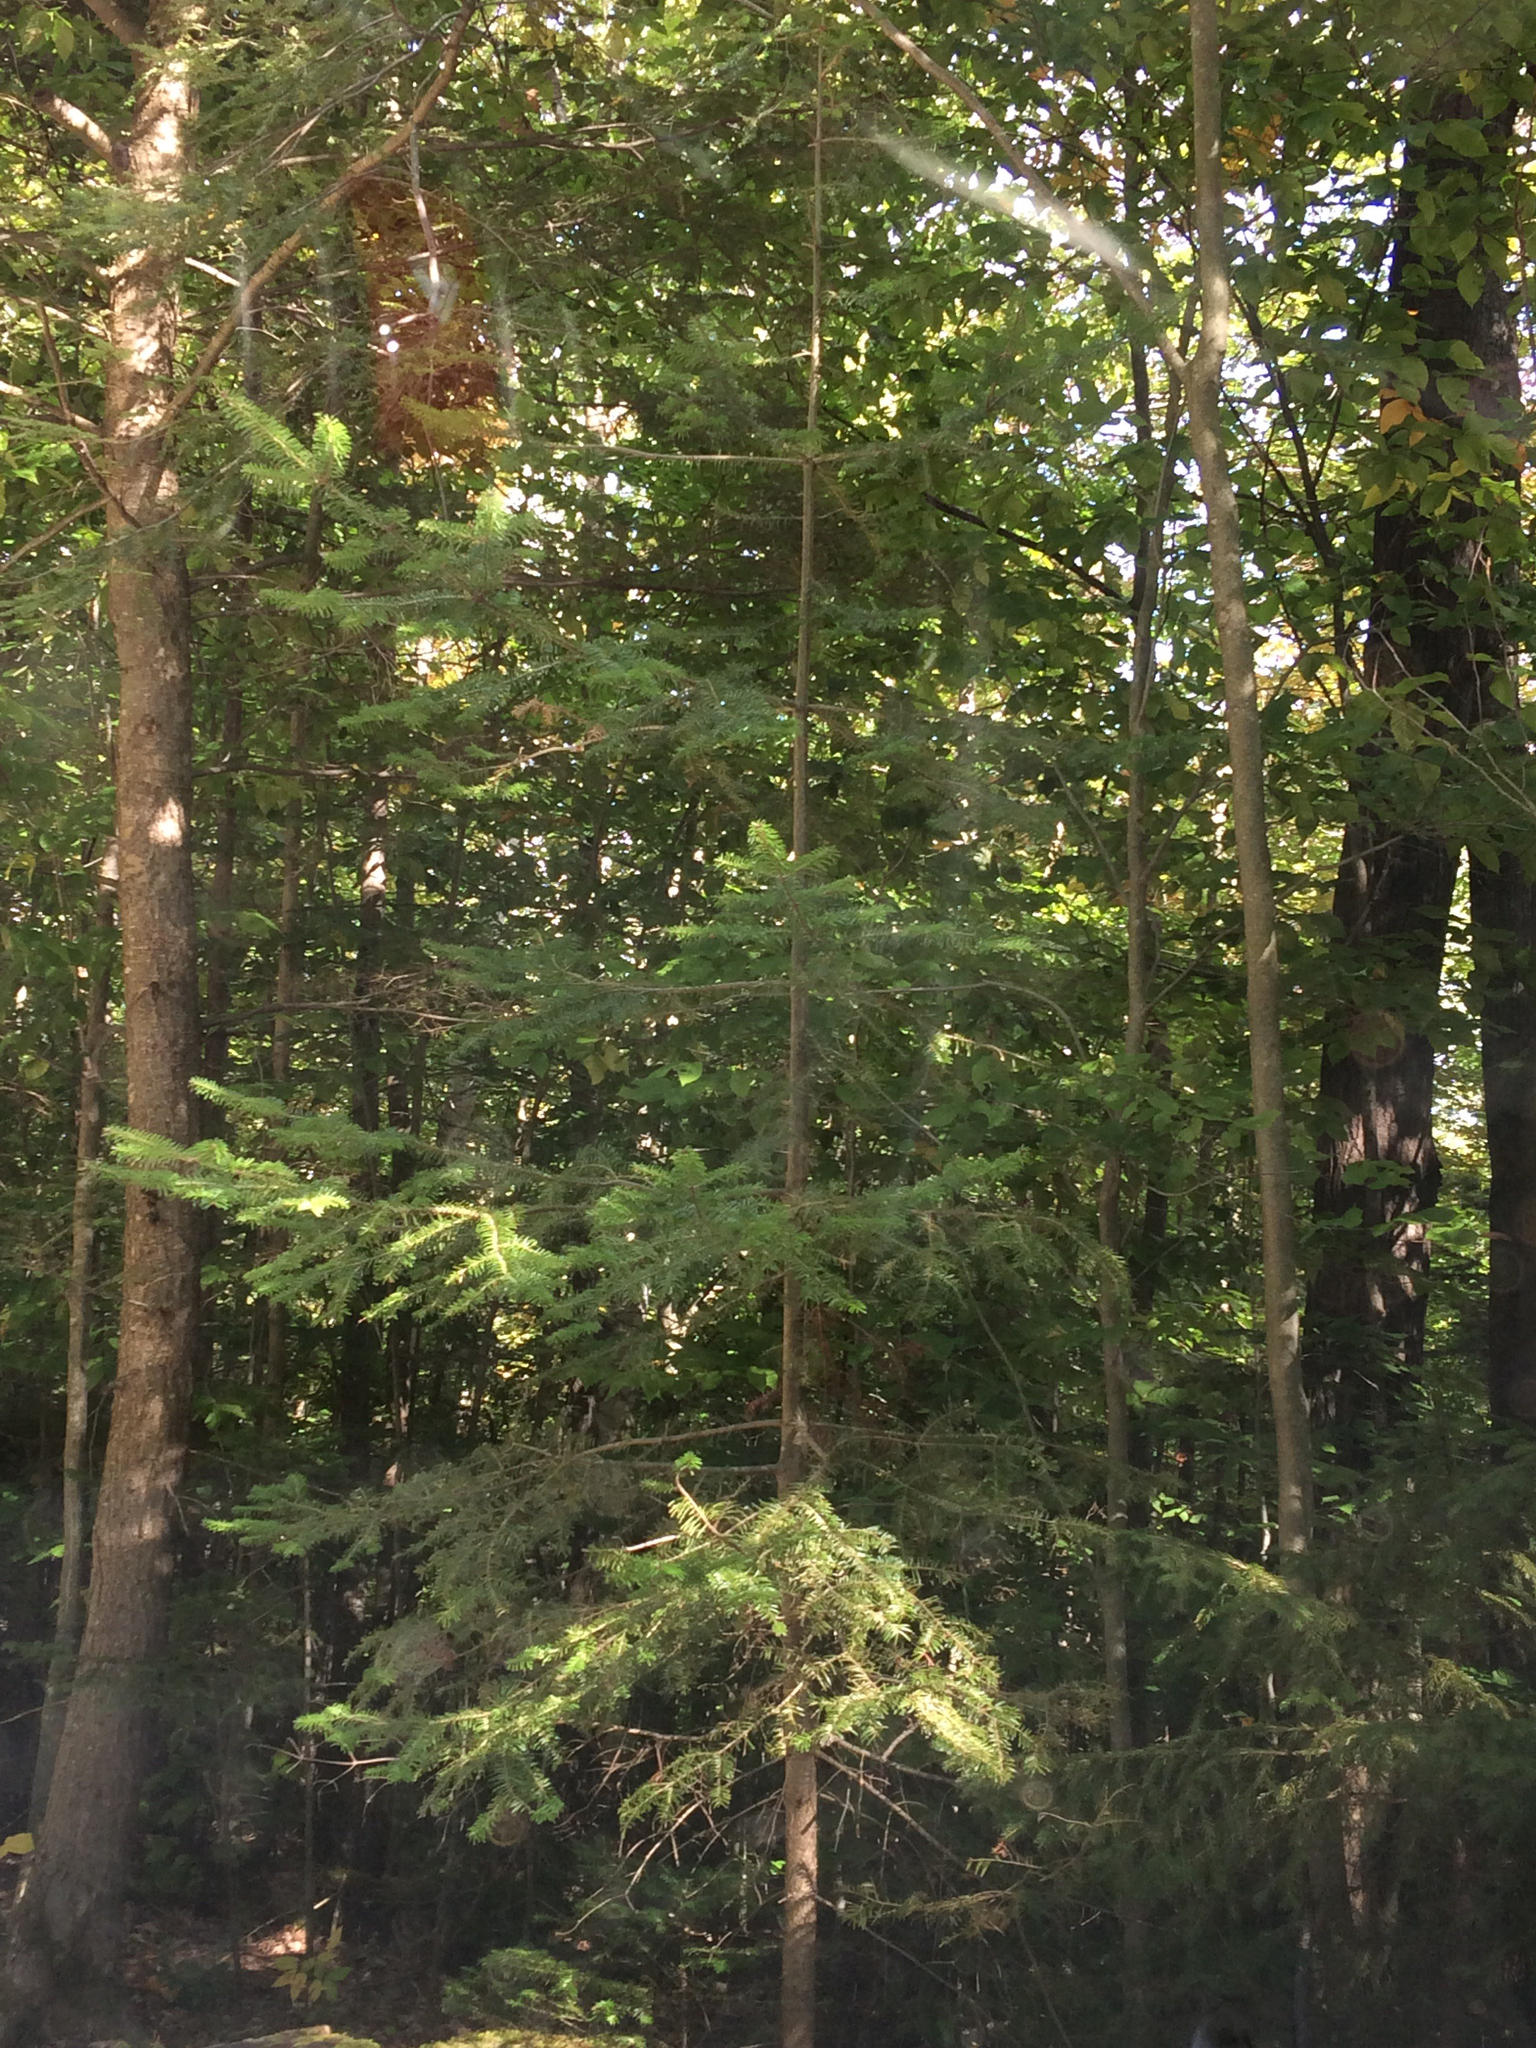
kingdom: Plantae
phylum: Tracheophyta
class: Pinopsida
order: Pinales
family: Pinaceae
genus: Abies
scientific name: Abies balsamea
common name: Balsam fir
